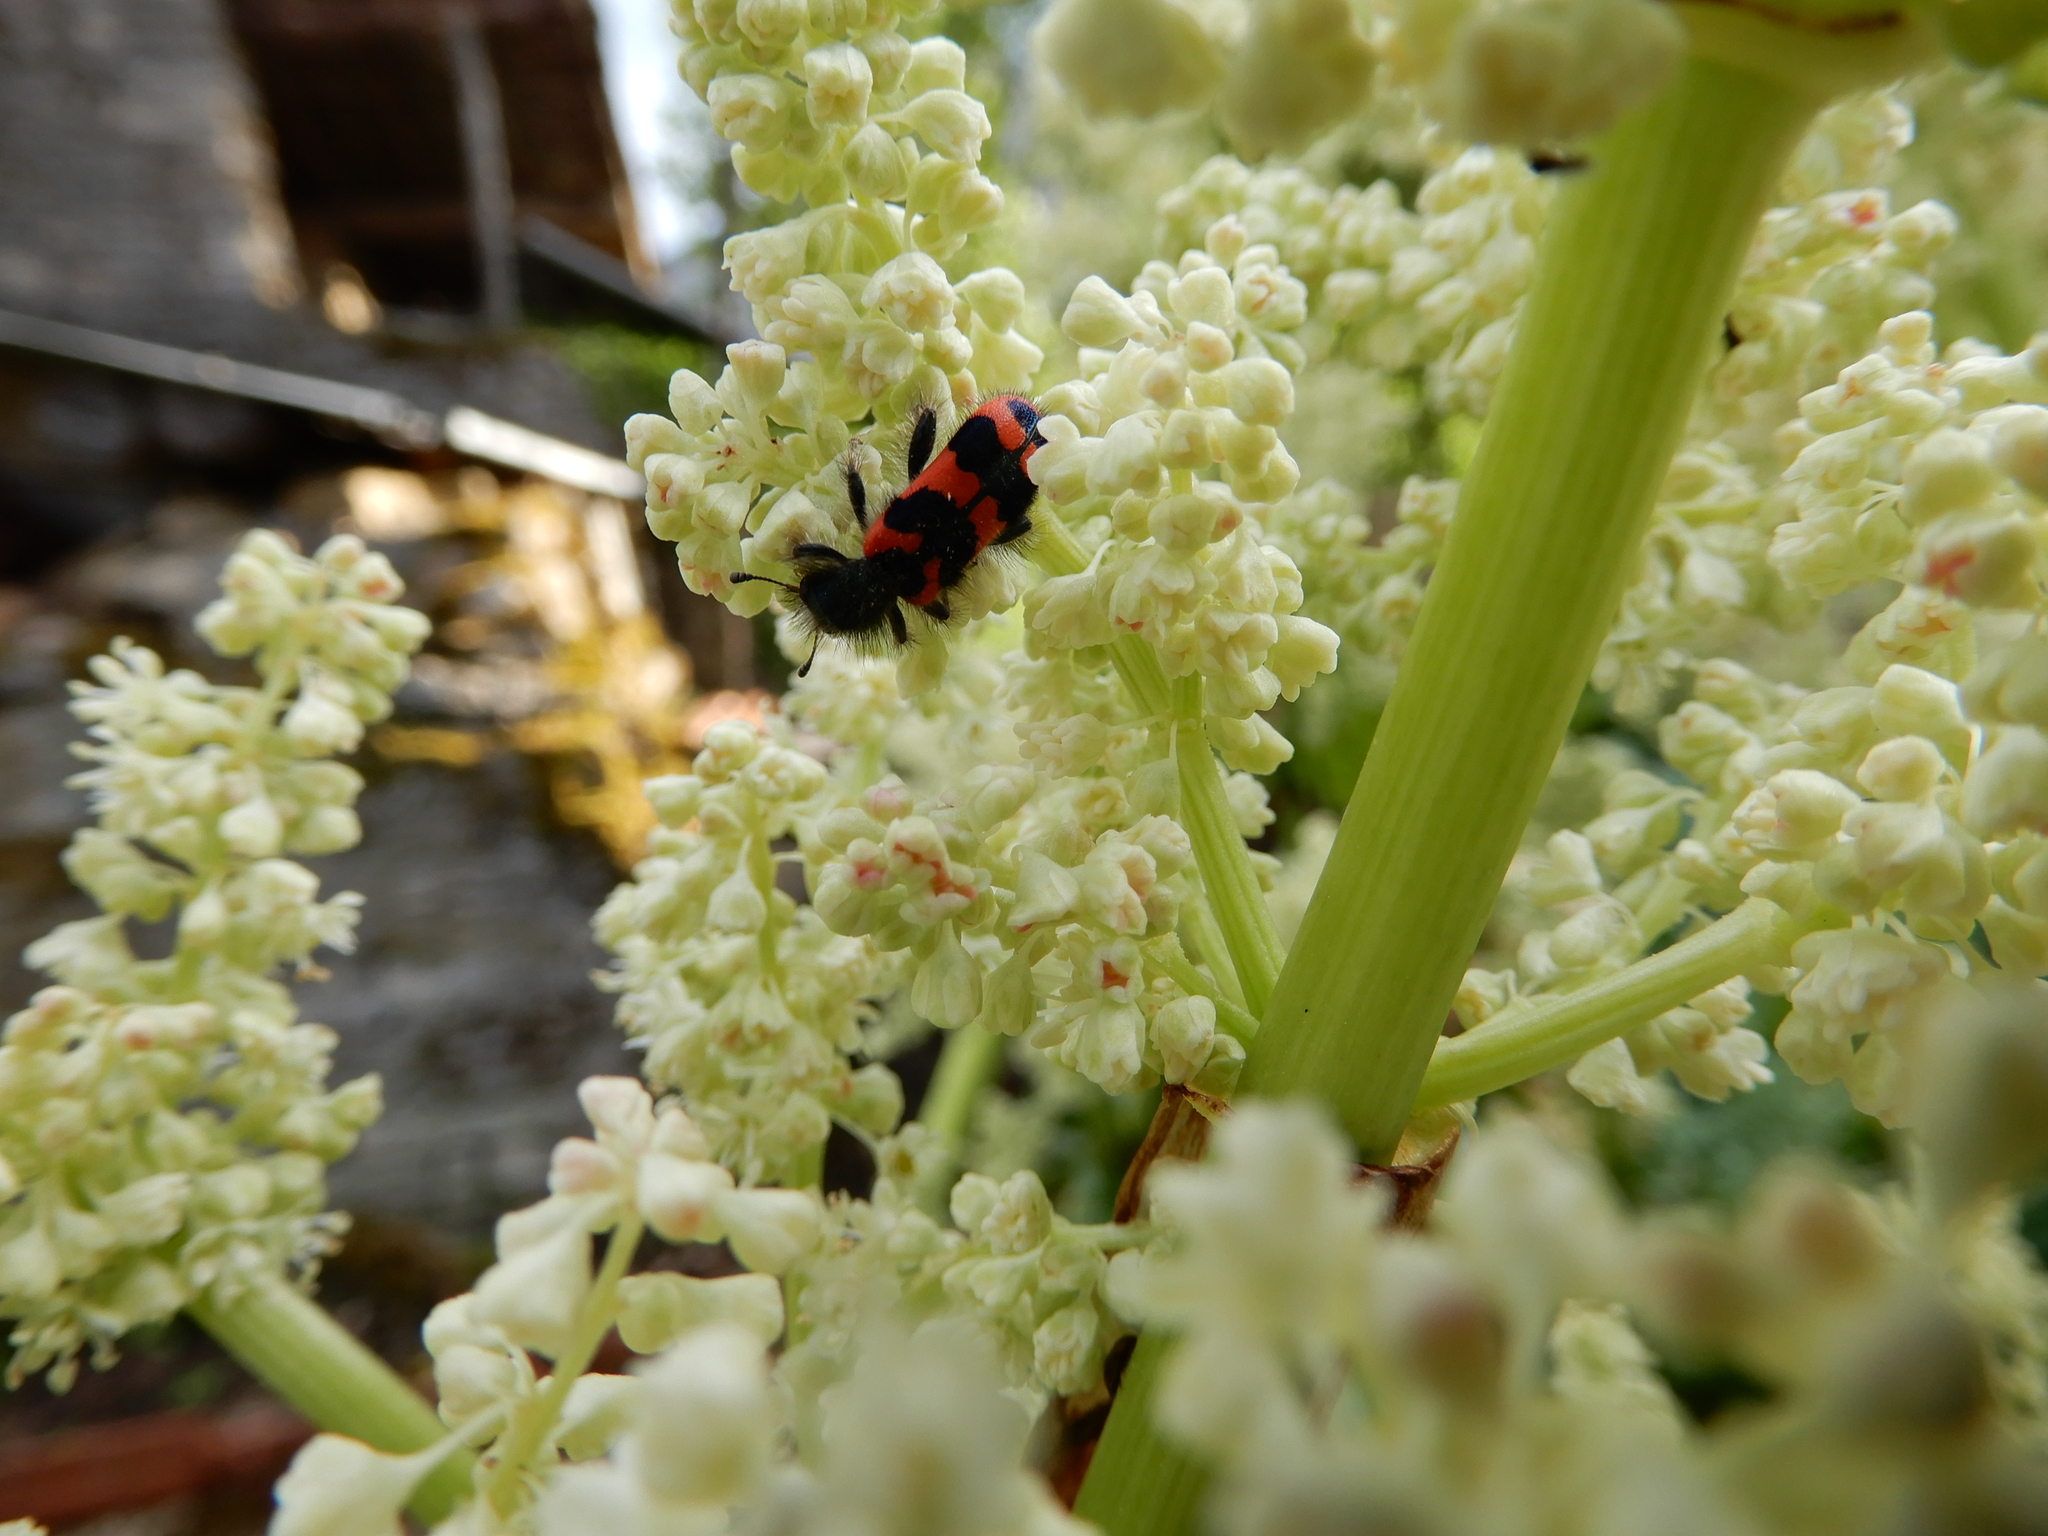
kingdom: Animalia
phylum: Arthropoda
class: Insecta
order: Coleoptera
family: Cleridae
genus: Trichodes
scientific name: Trichodes alvearius
